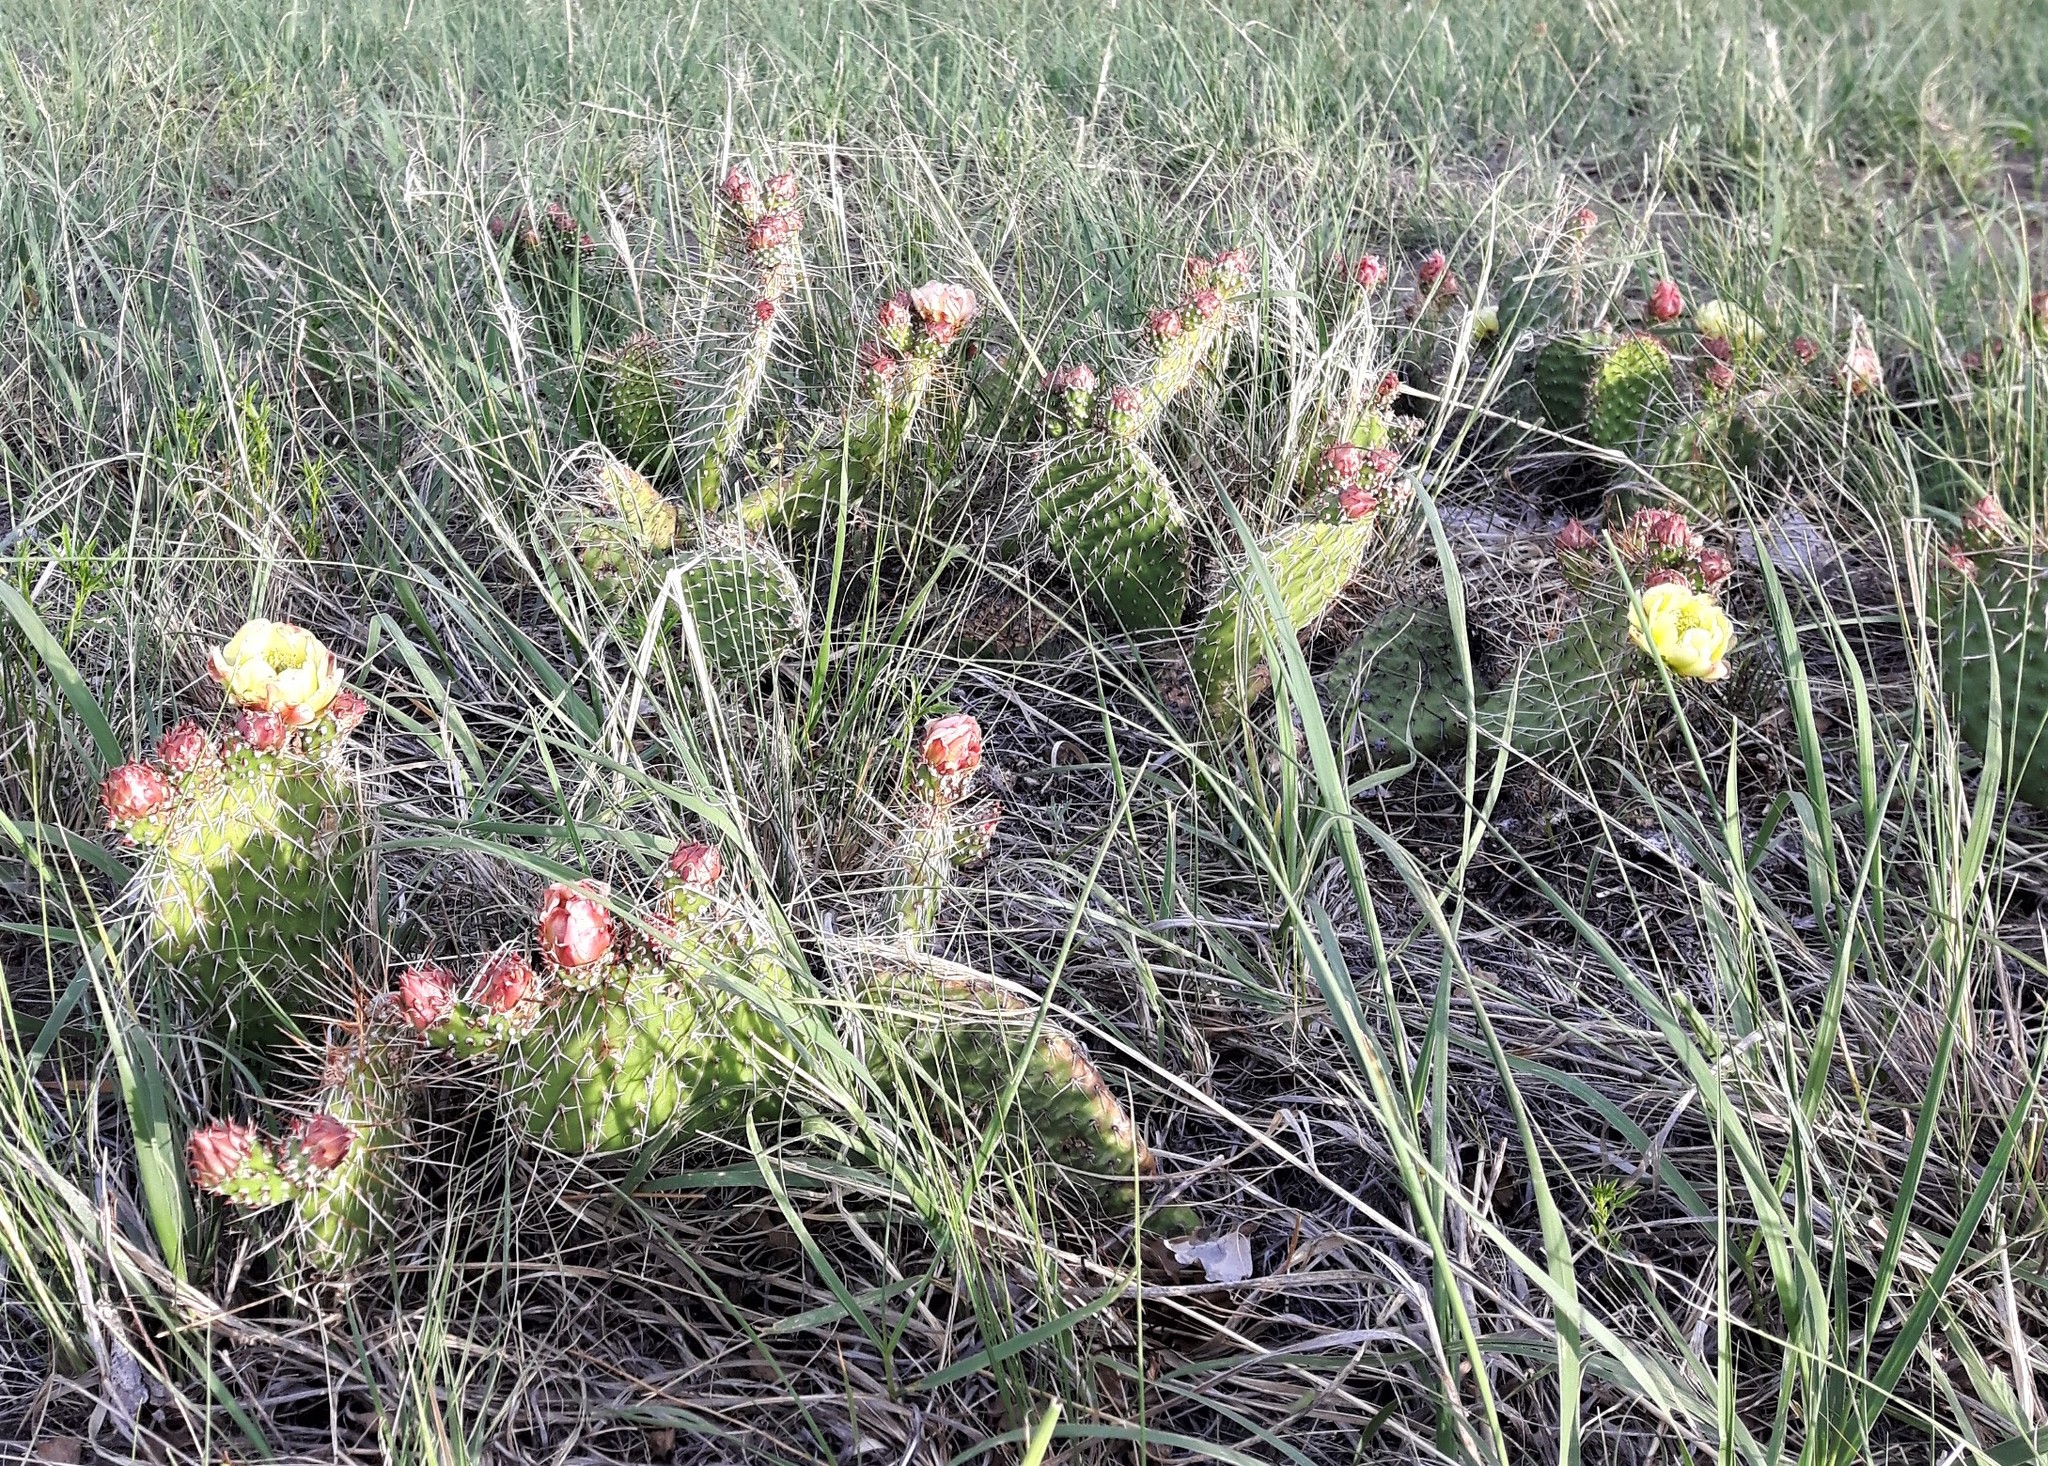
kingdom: Plantae
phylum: Tracheophyta
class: Magnoliopsida
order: Caryophyllales
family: Cactaceae
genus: Opuntia
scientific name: Opuntia polyacantha
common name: Plains prickly-pear
